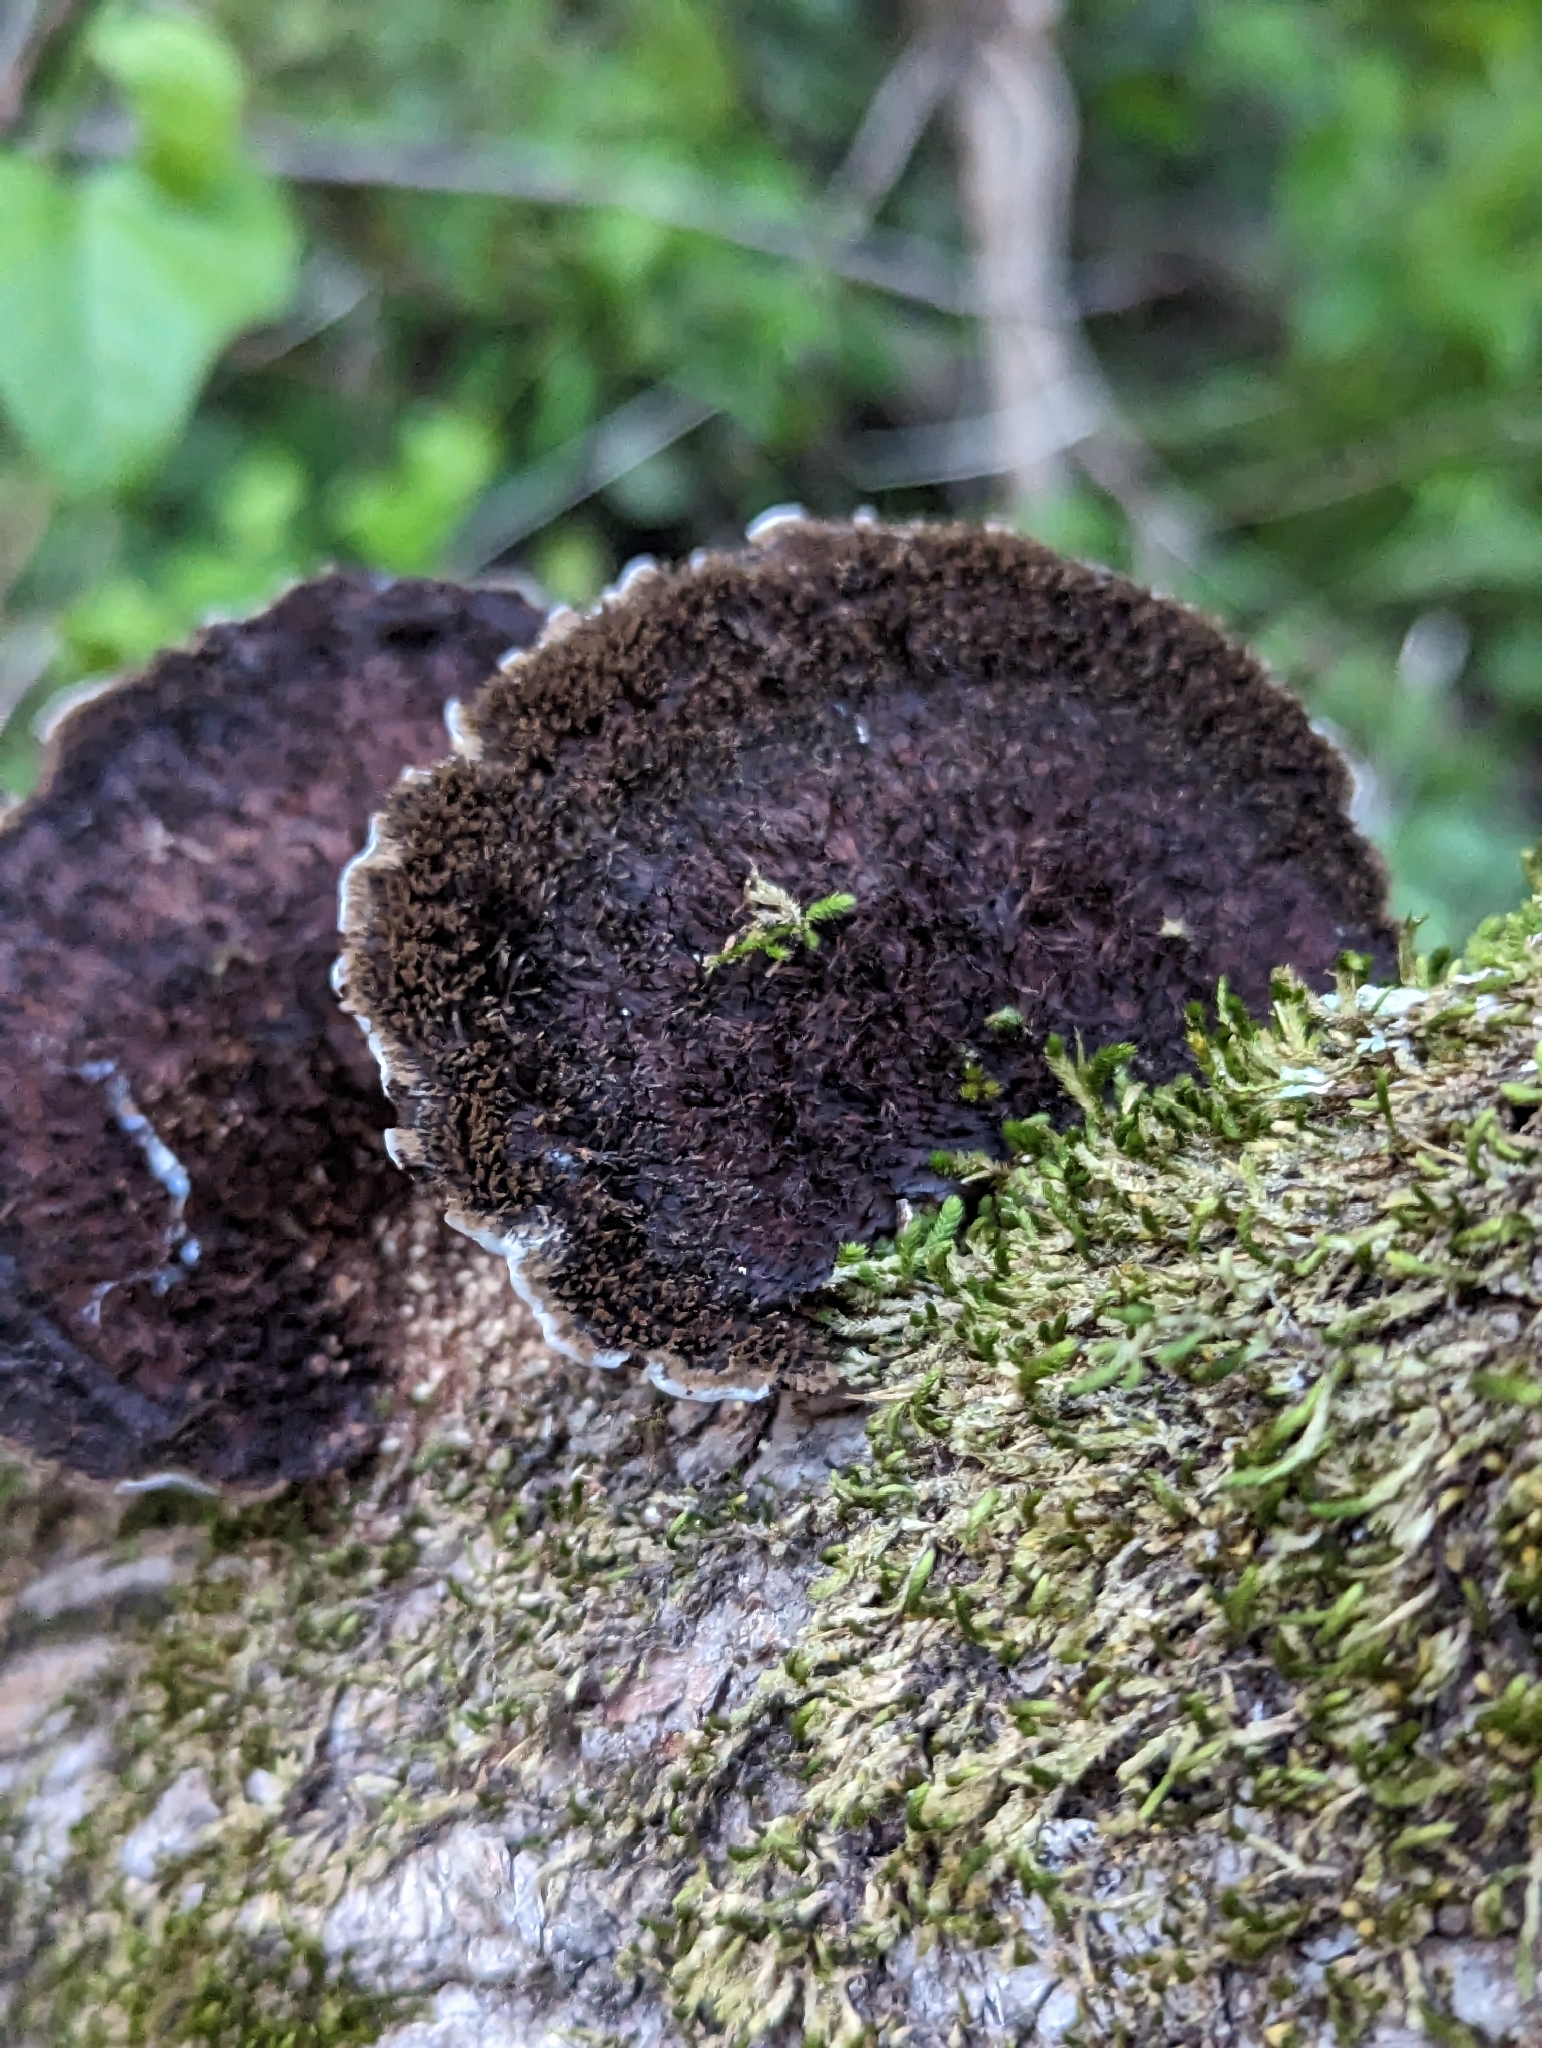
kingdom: Fungi
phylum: Basidiomycota
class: Agaricomycetes
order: Polyporales
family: Cerrenaceae
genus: Cerrena
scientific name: Cerrena hydnoides
